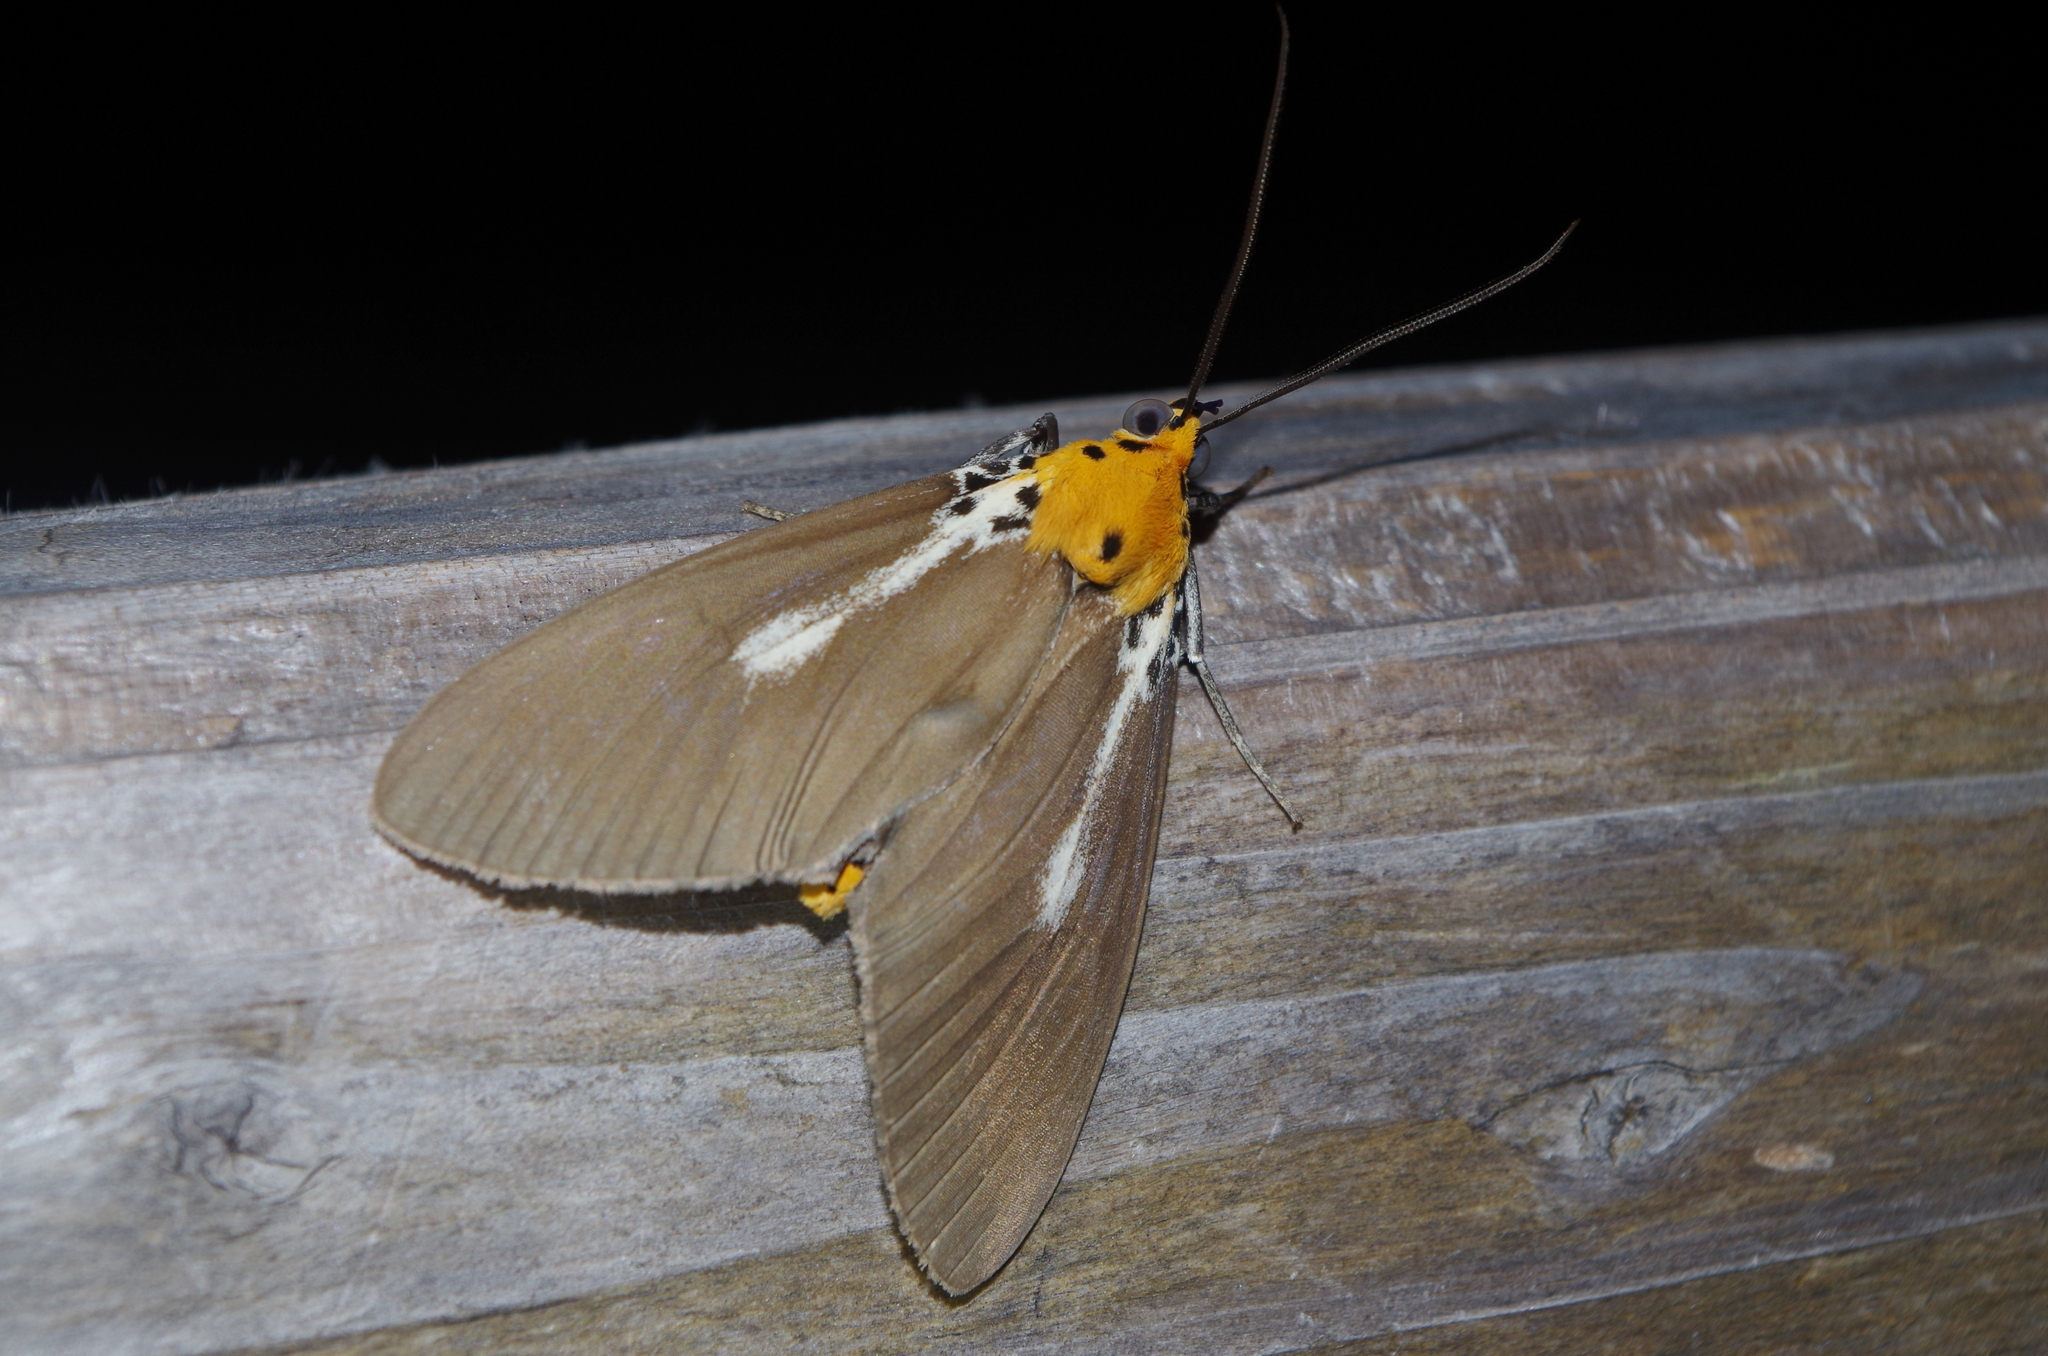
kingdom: Animalia
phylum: Arthropoda
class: Insecta
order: Lepidoptera
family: Erebidae
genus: Asota
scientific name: Asota heliconia
